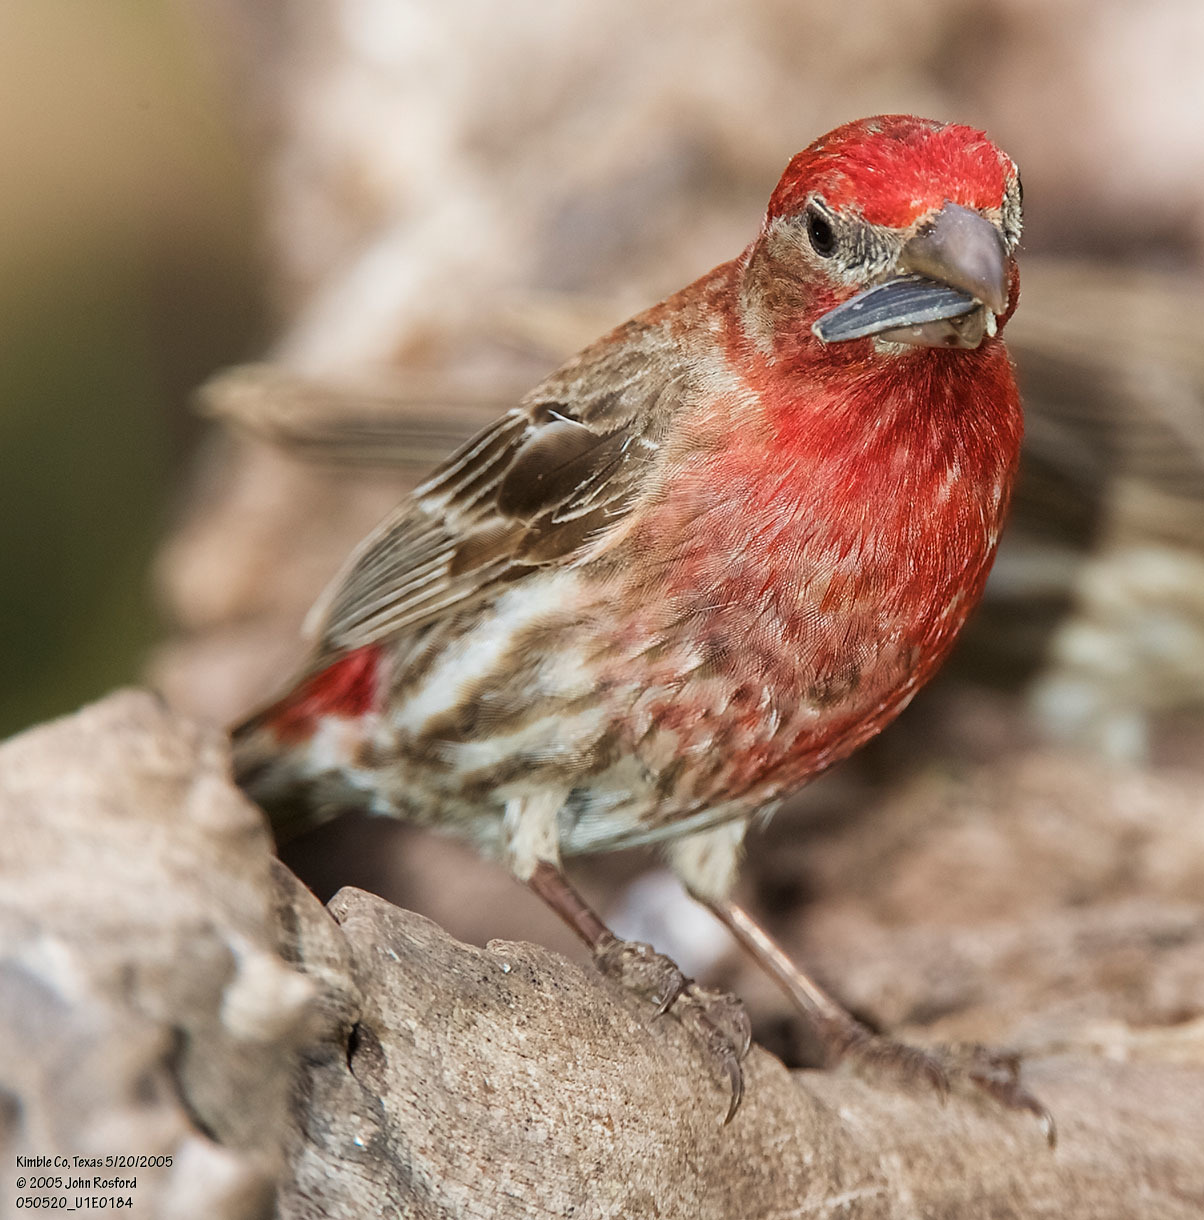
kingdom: Animalia
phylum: Chordata
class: Aves
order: Passeriformes
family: Fringillidae
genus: Haemorhous
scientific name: Haemorhous mexicanus
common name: House finch
